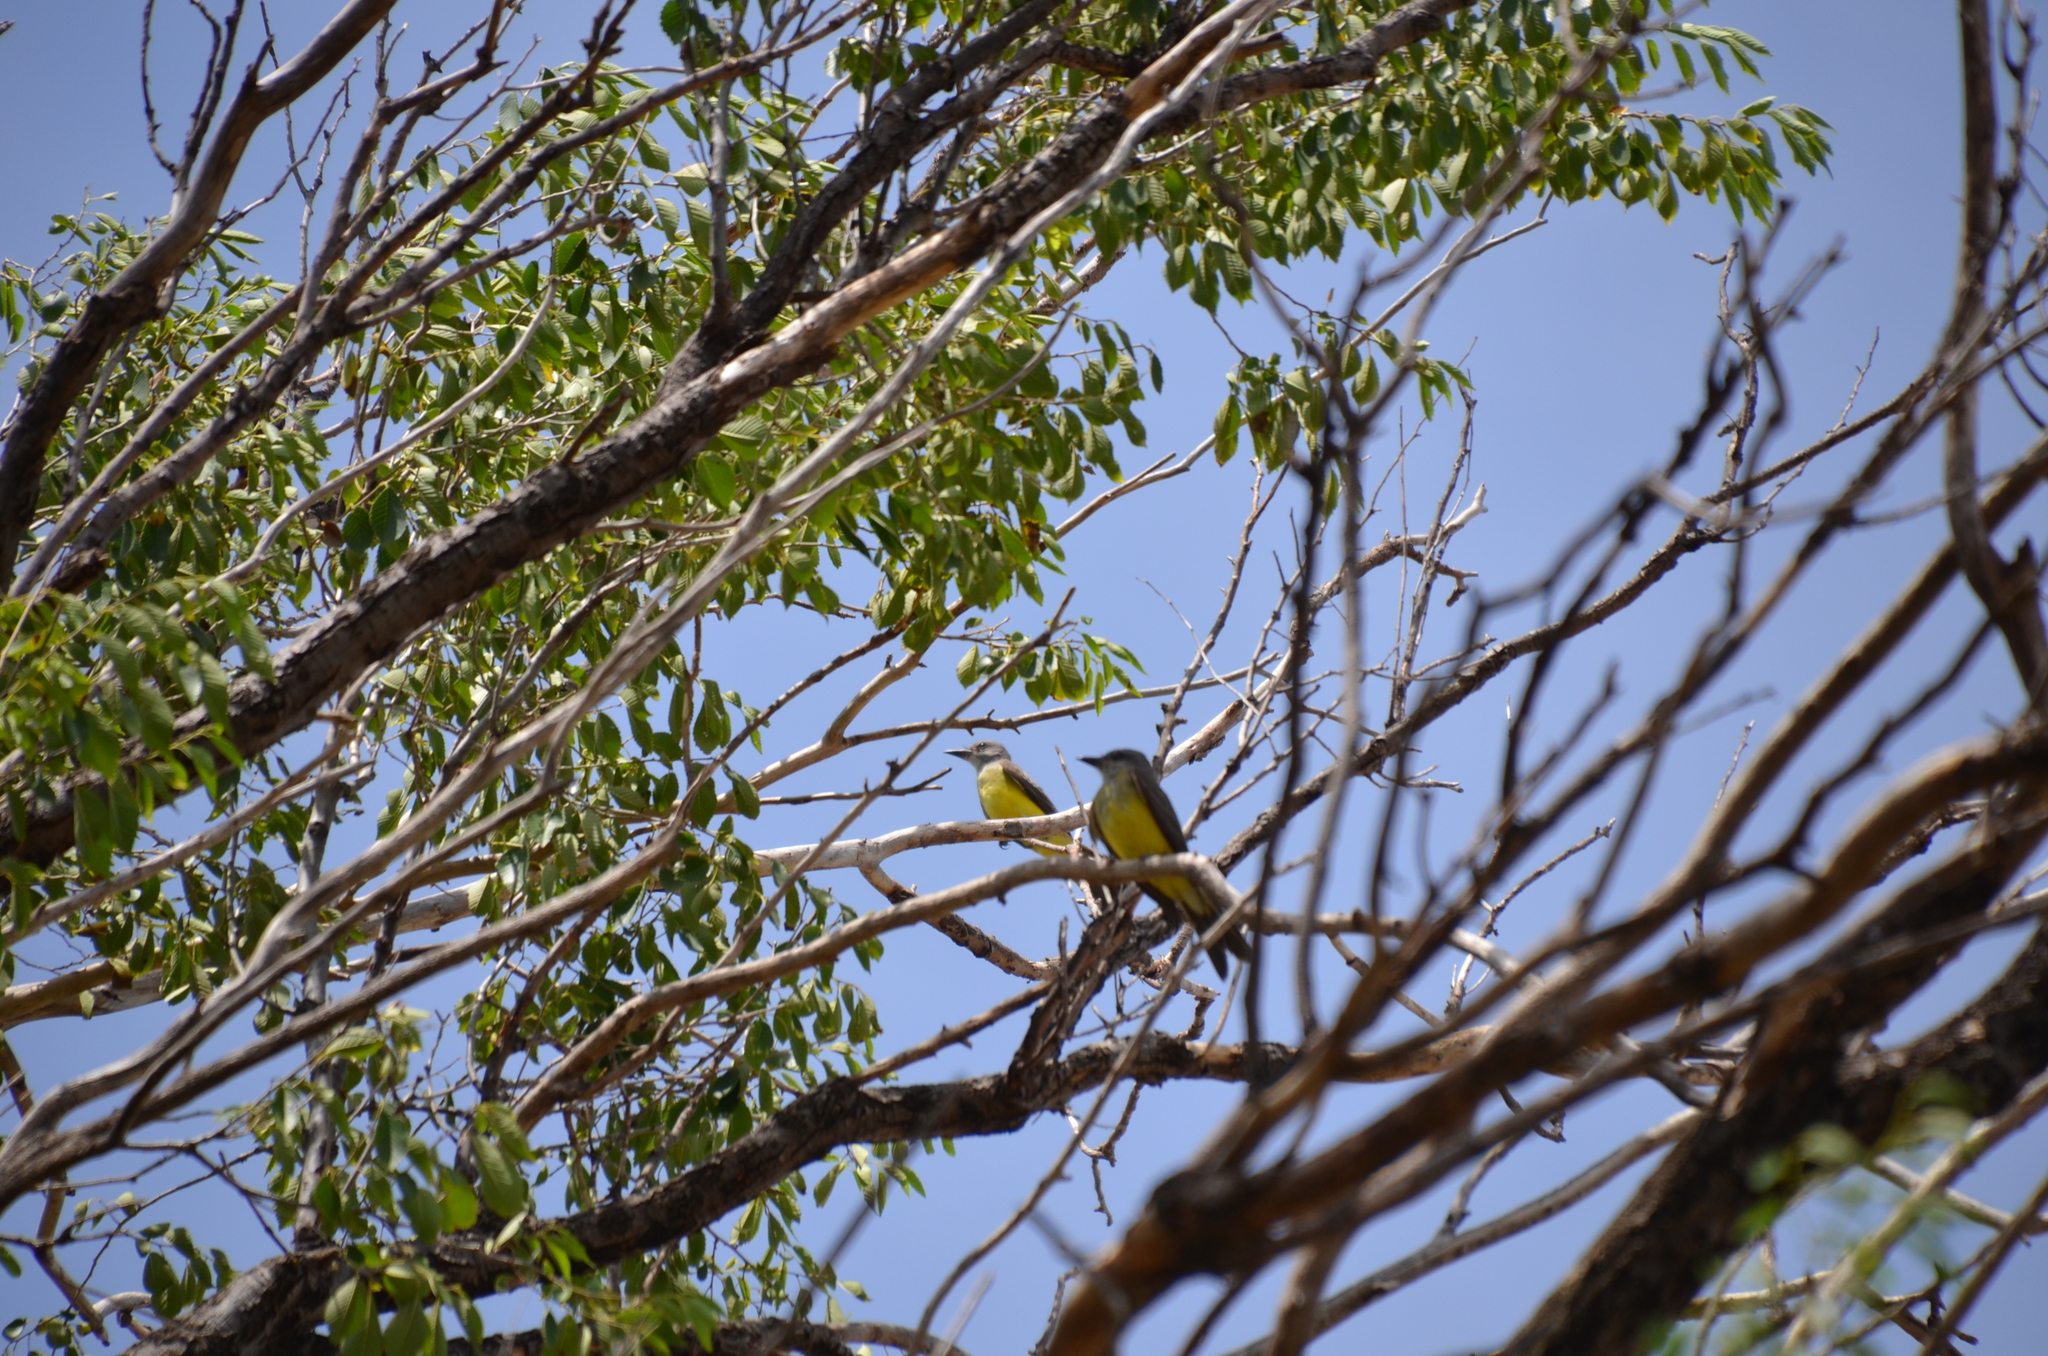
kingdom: Animalia
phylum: Chordata
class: Aves
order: Passeriformes
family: Tyrannidae
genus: Tyrannus
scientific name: Tyrannus melancholicus
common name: Tropical kingbird
